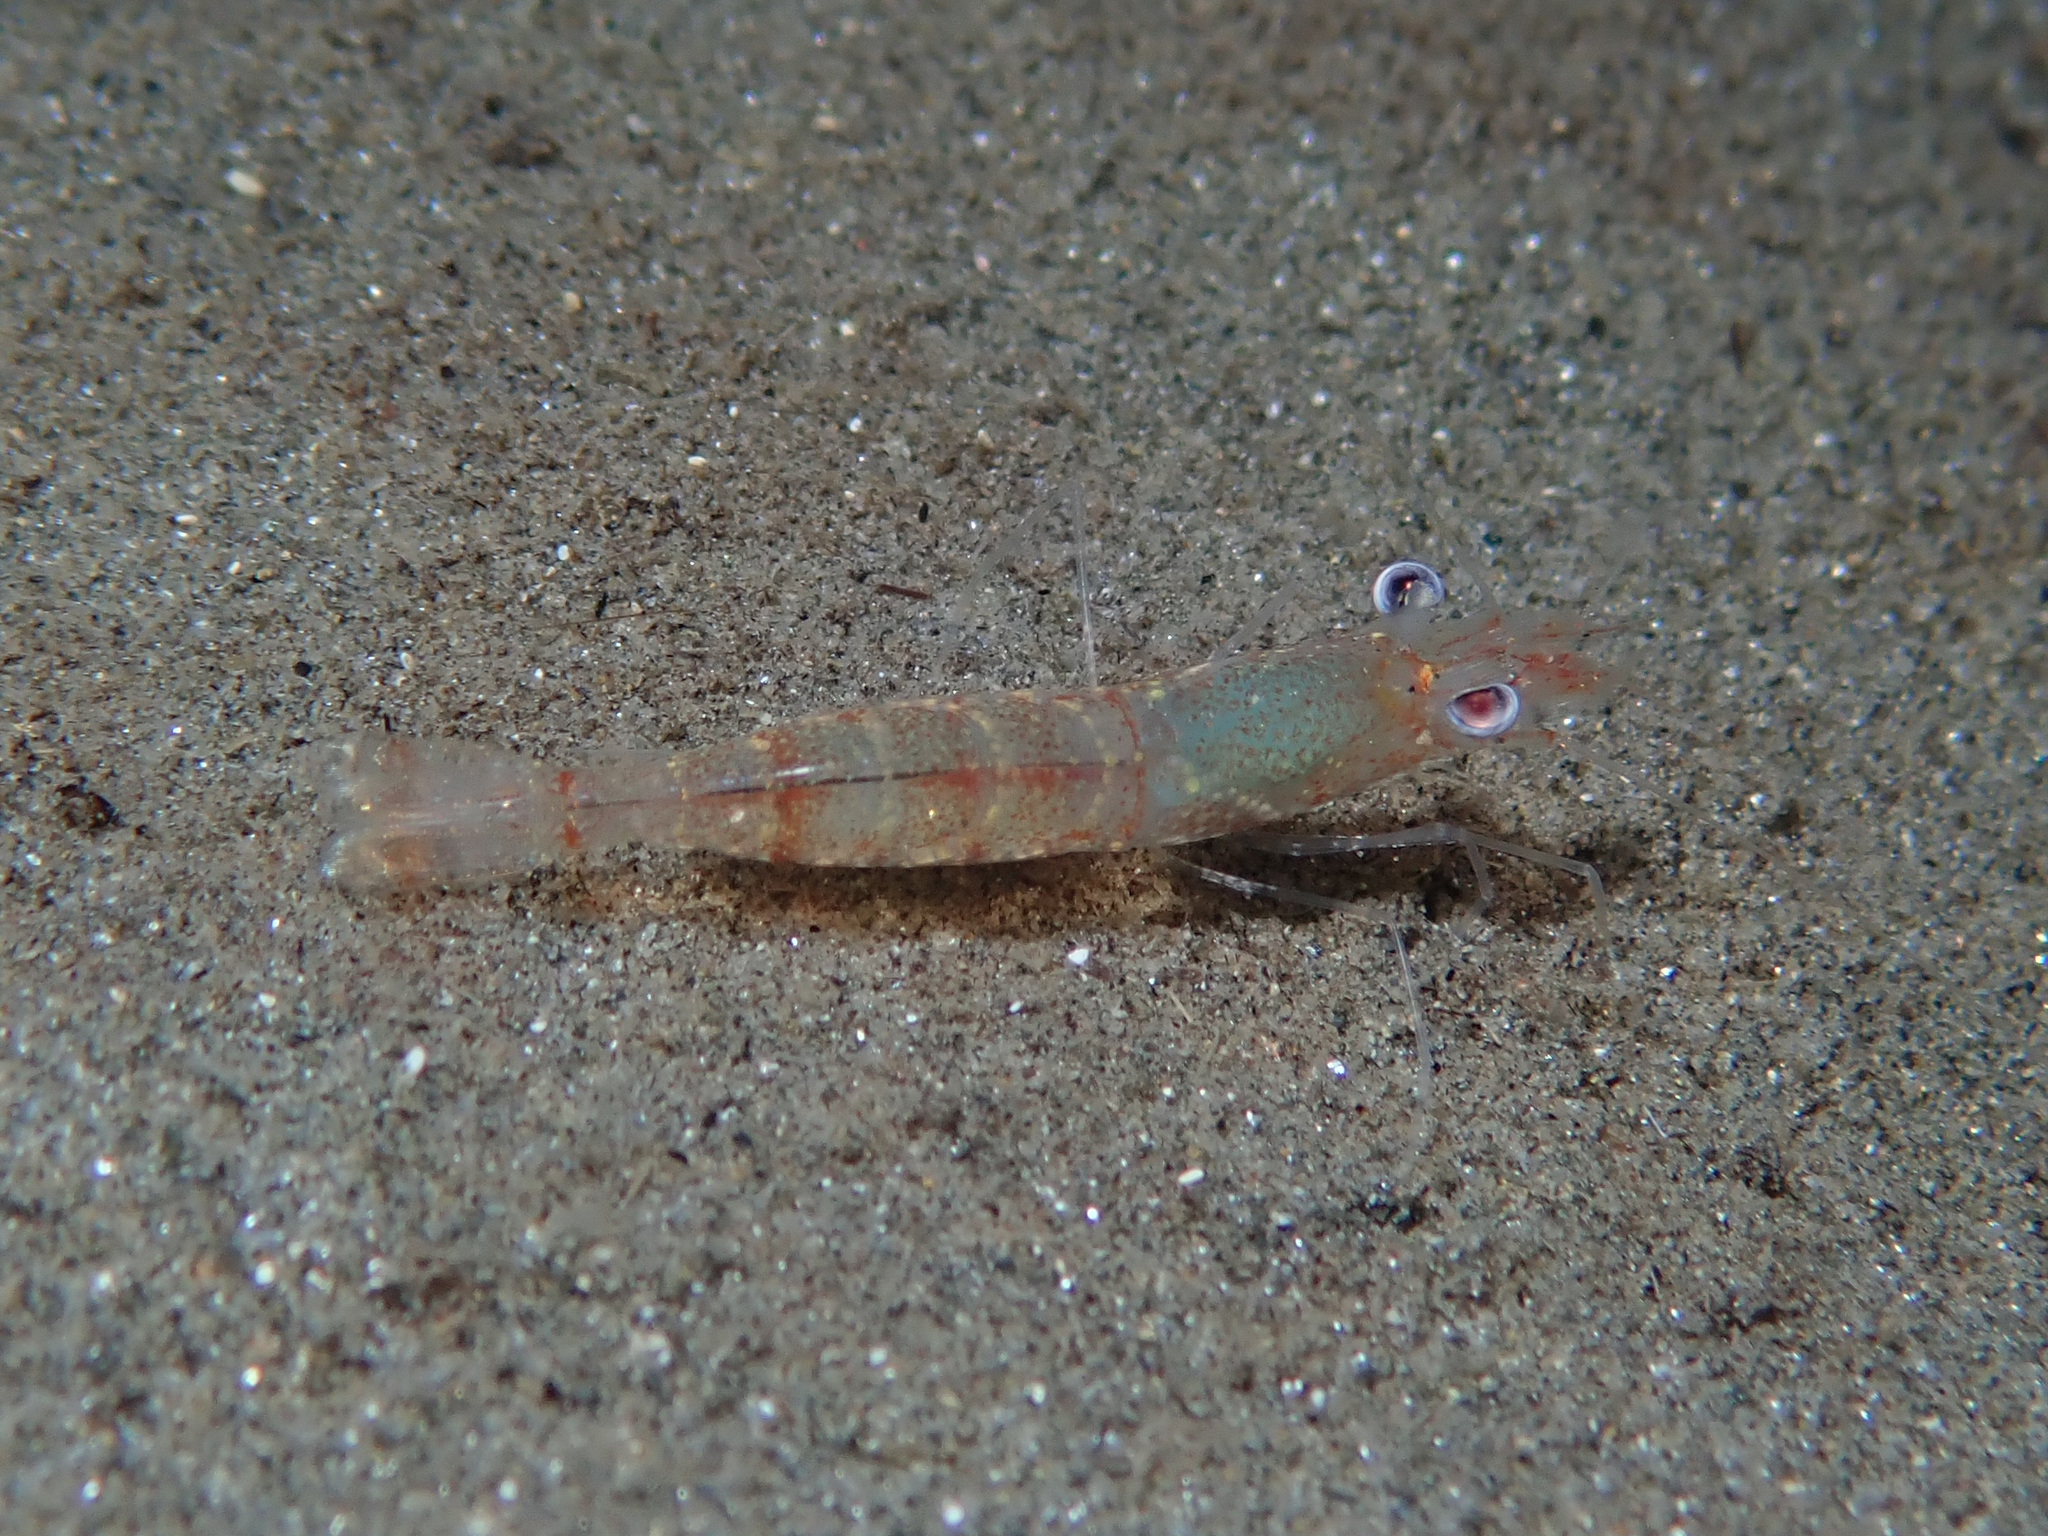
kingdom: Animalia
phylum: Arthropoda
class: Malacostraca
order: Decapoda
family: Processidae
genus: Processa
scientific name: Processa modica
